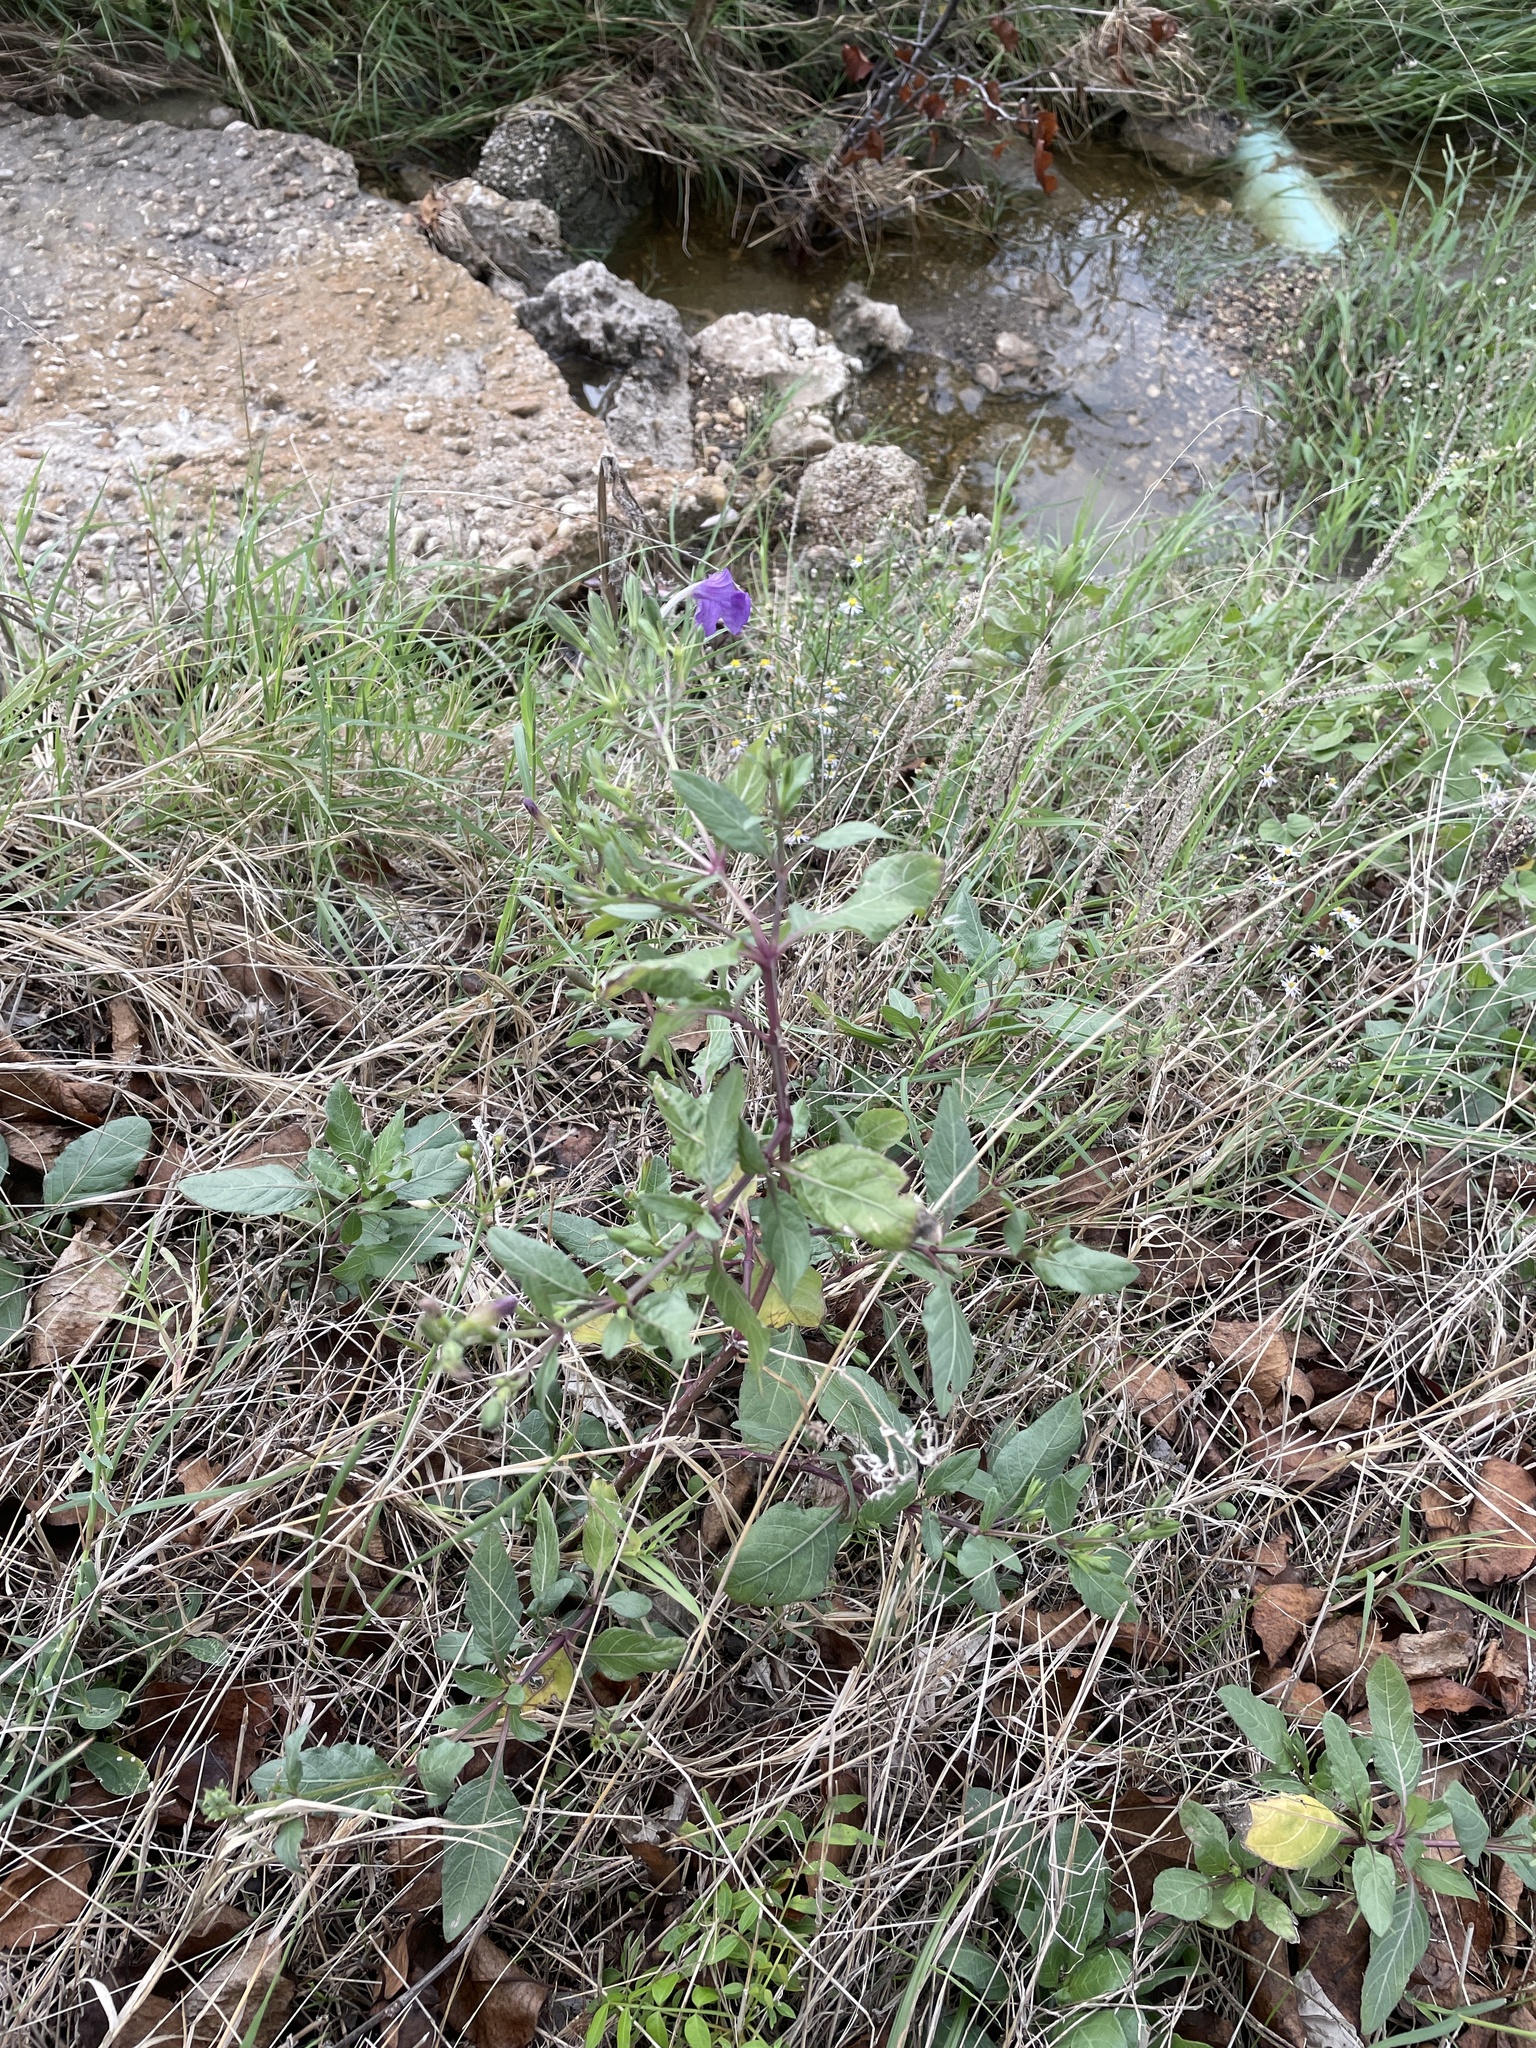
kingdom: Plantae
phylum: Tracheophyta
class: Magnoliopsida
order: Lamiales
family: Acanthaceae
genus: Ruellia
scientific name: Ruellia ciliatiflora
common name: Hairyflower wild petunia
